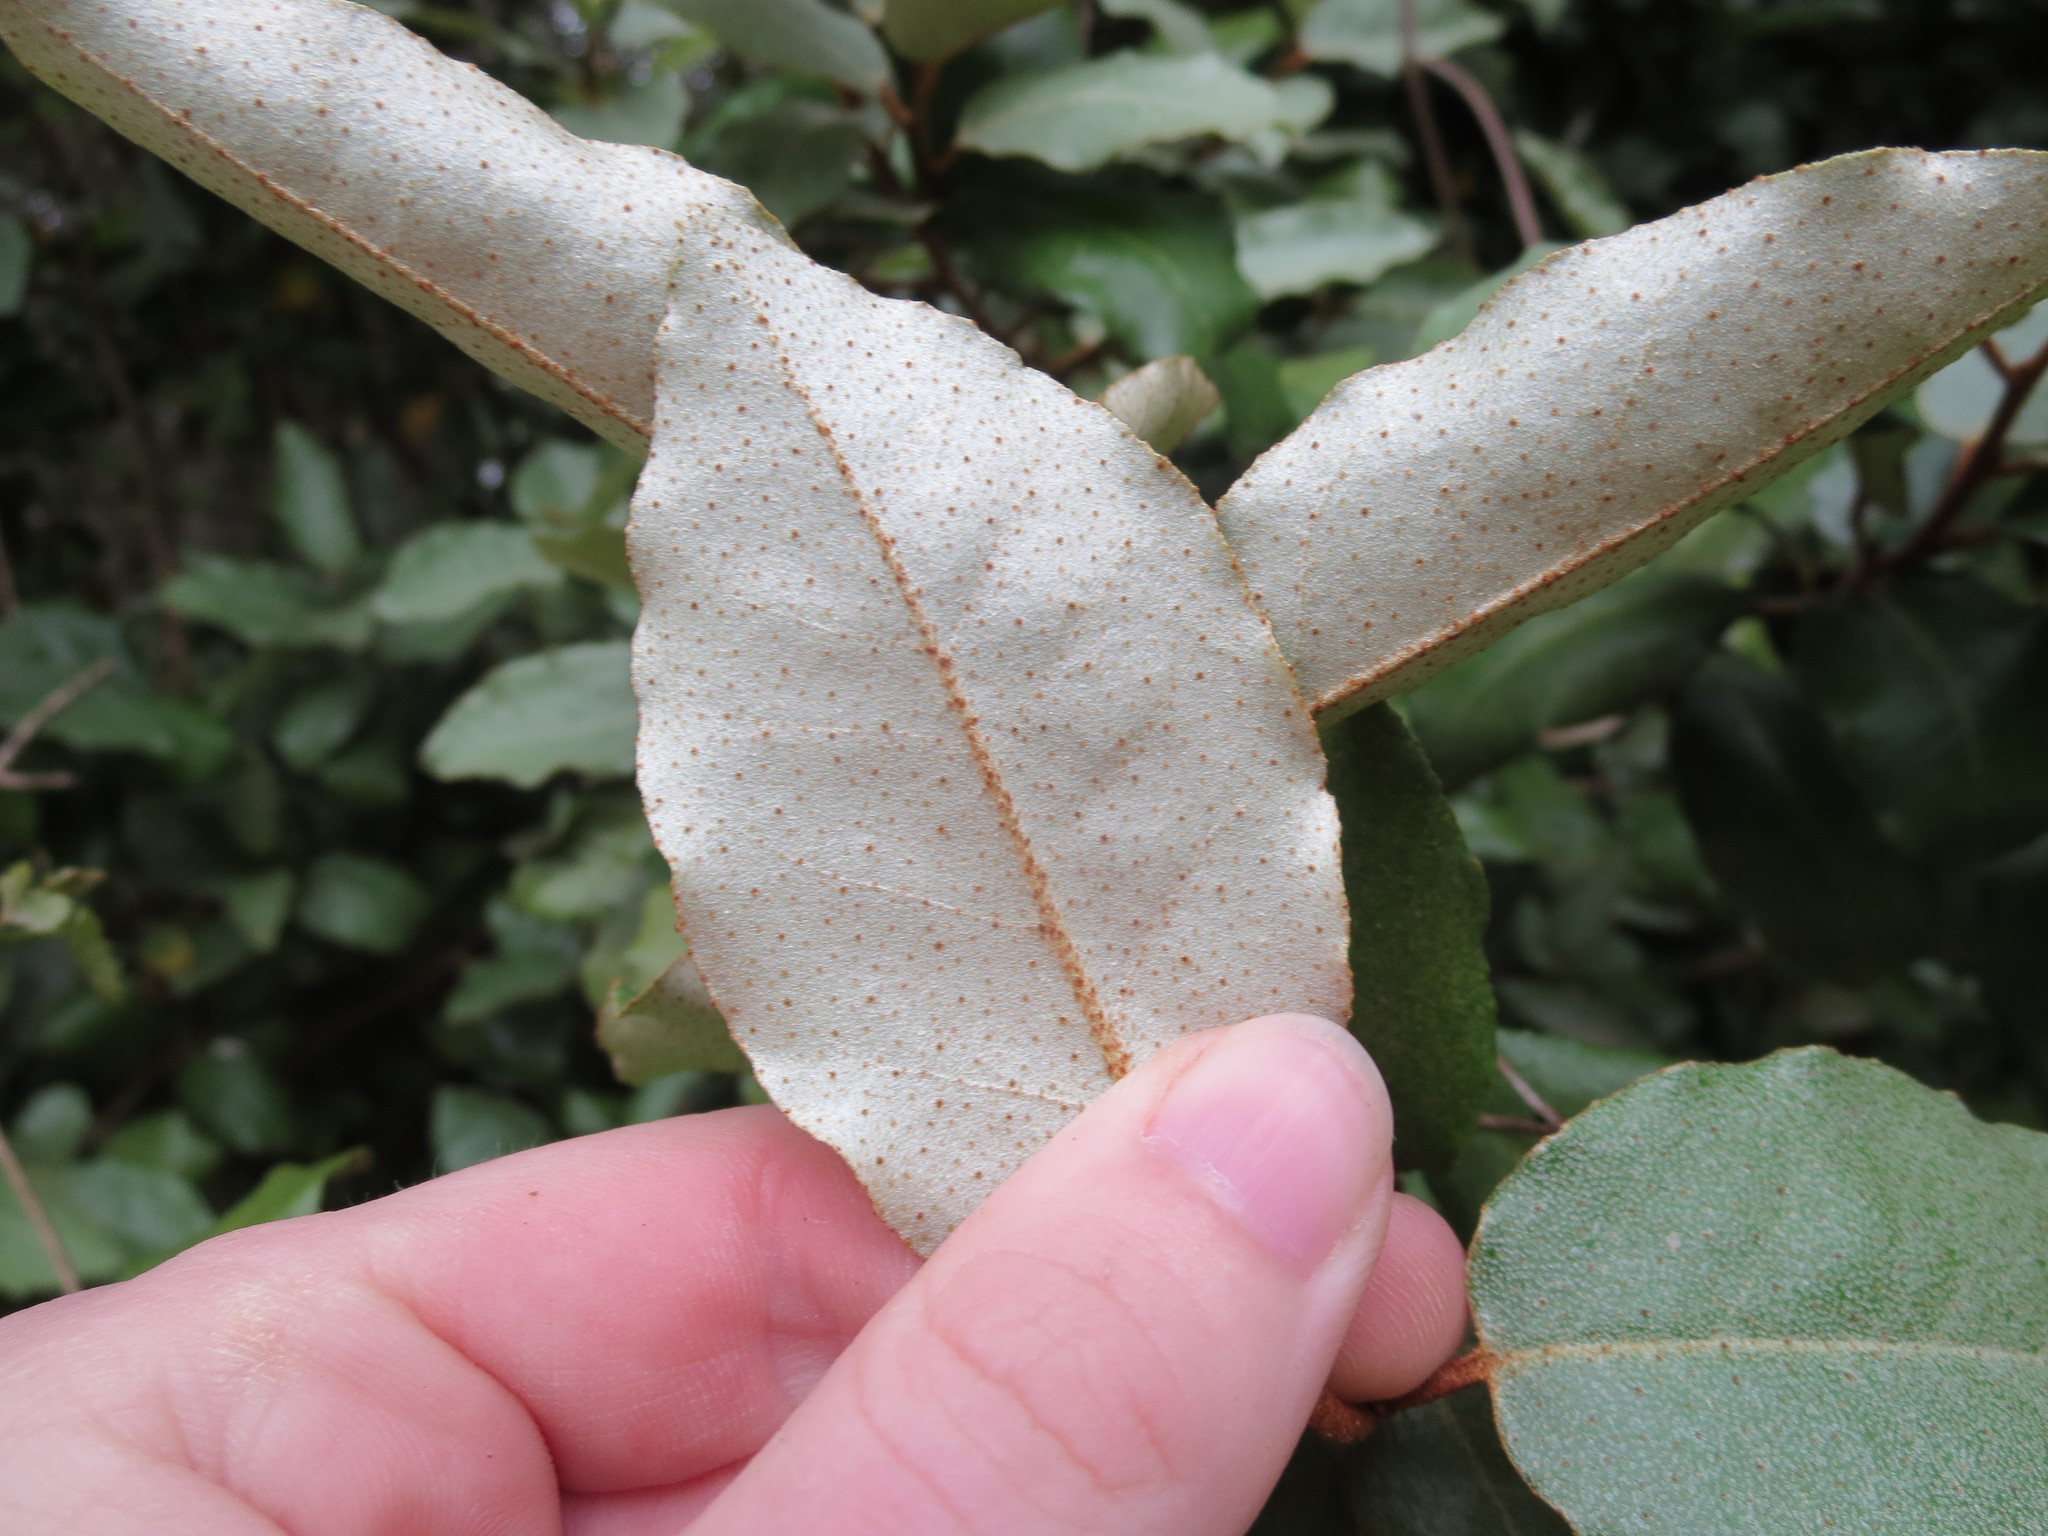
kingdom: Plantae
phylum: Tracheophyta
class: Magnoliopsida
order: Rosales
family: Elaeagnaceae
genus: Elaeagnus
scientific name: Elaeagnus pungens
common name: Spiny oleaster
